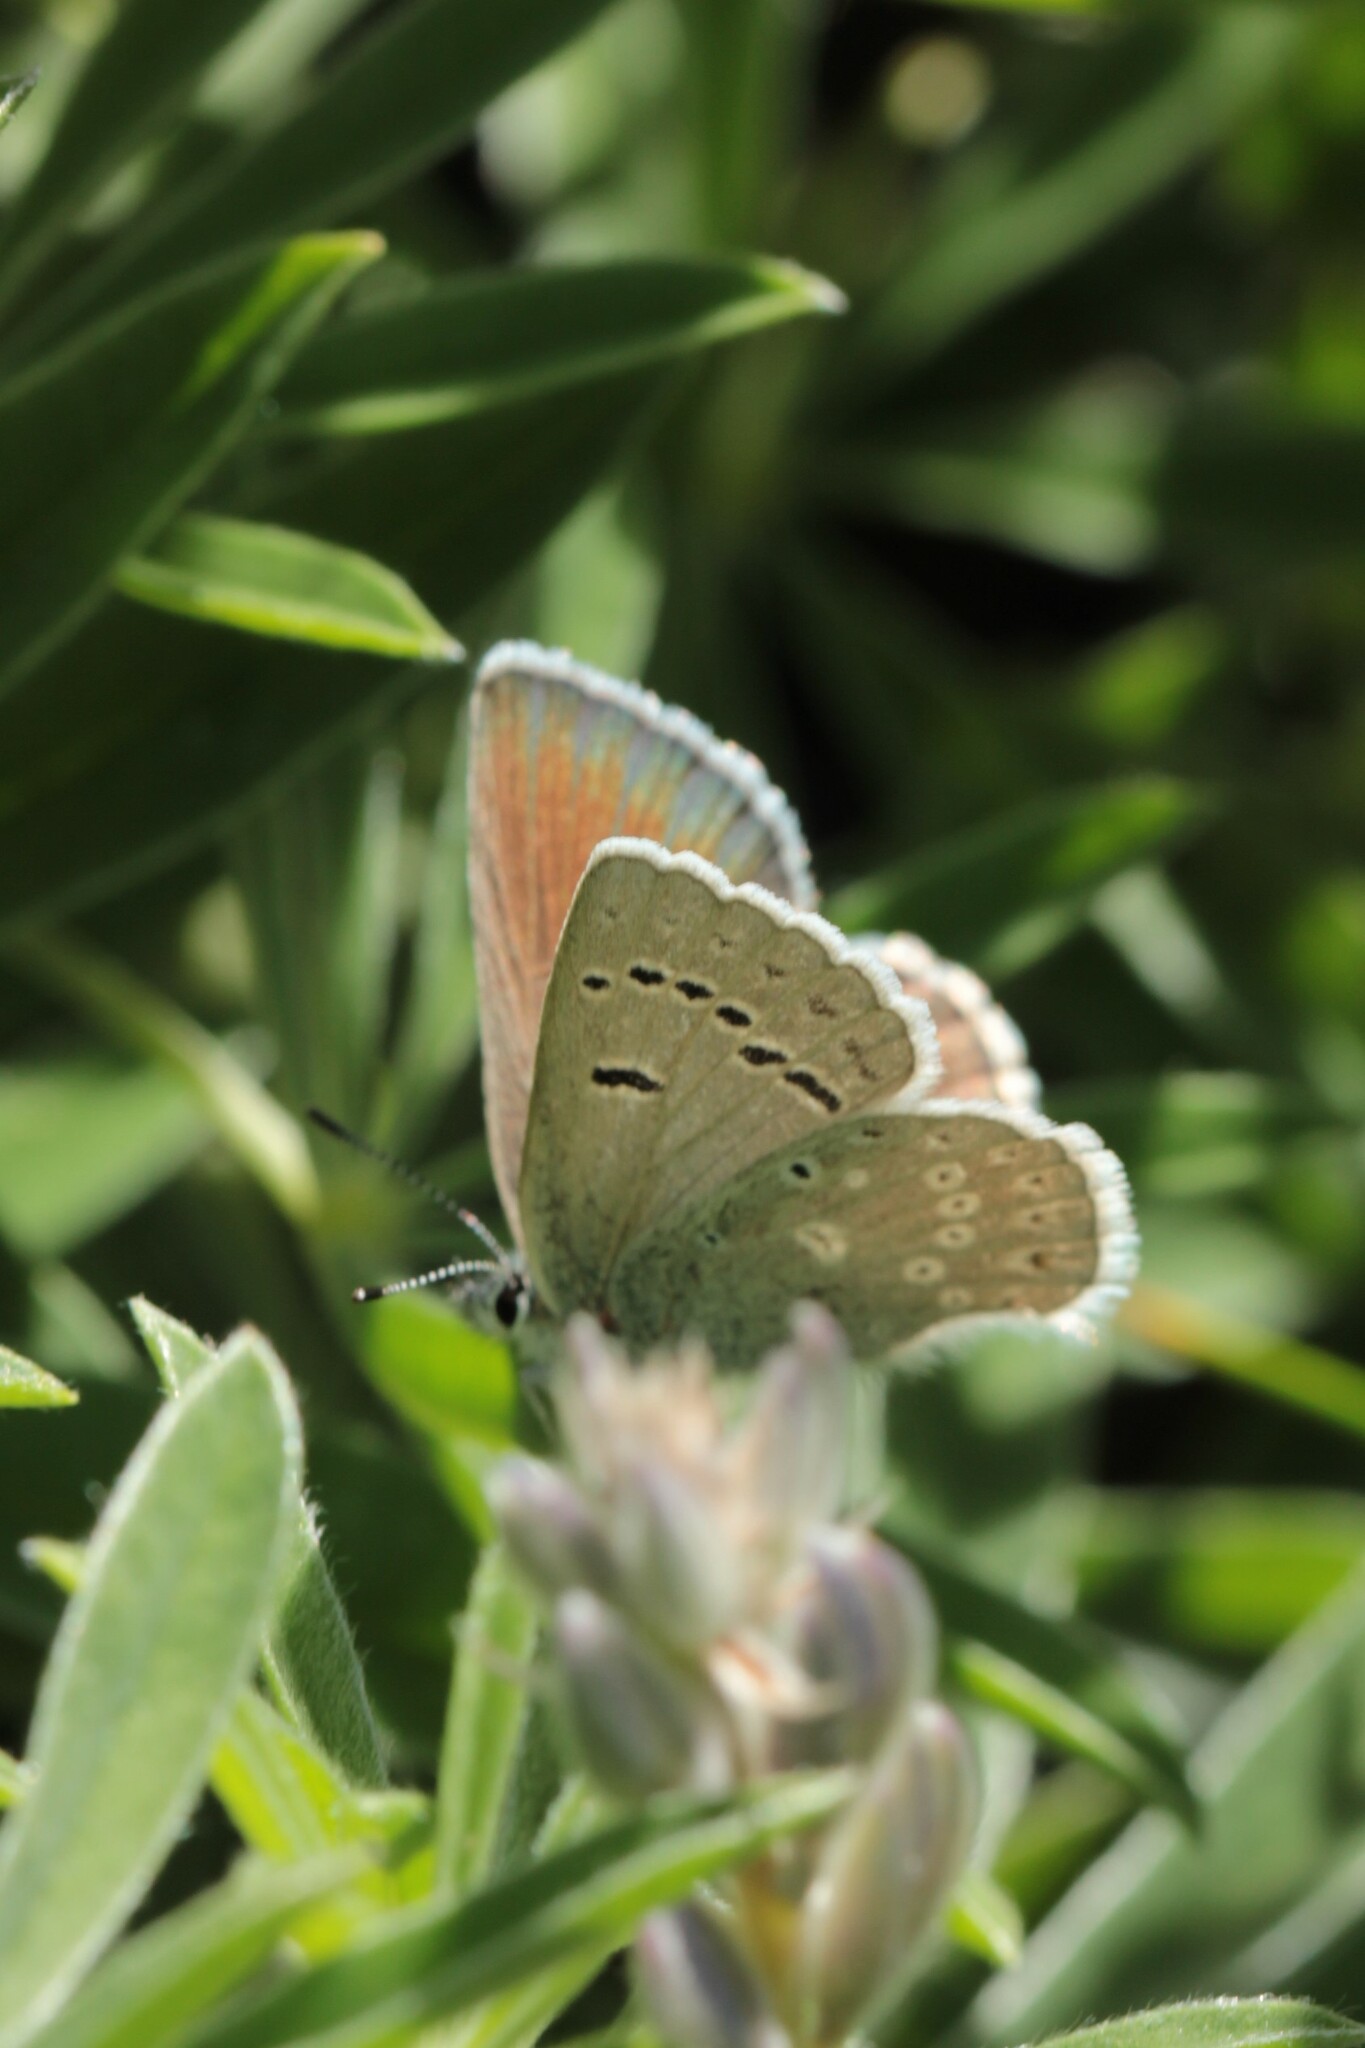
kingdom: Animalia
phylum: Arthropoda
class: Insecta
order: Lepidoptera
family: Lycaenidae
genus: Icaricia
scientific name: Icaricia icarioides
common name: Boisduval's blue
